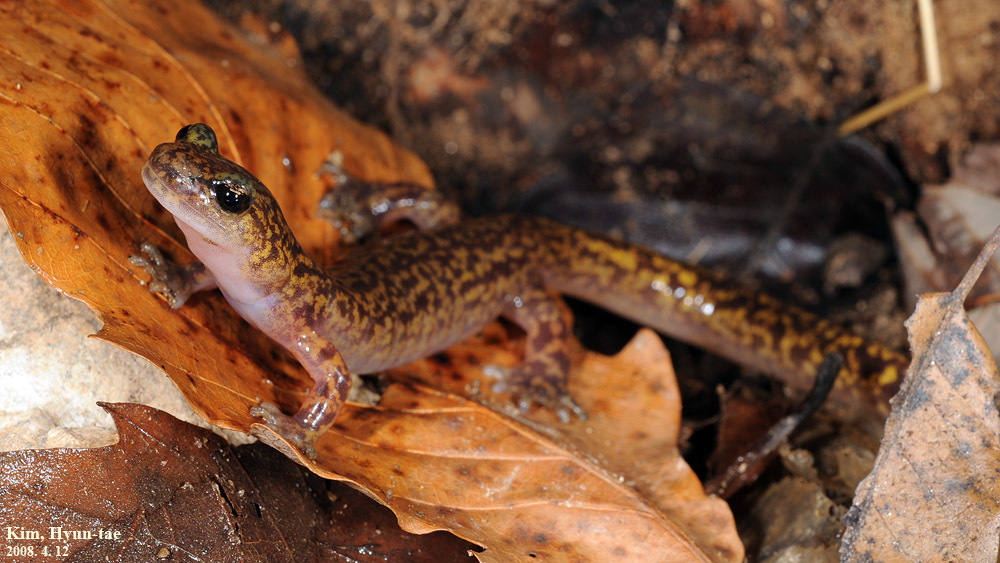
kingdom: Animalia
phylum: Chordata
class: Amphibia
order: Caudata
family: Hynobiidae
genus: Onychodactylus
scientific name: Onychodactylus koreanus
